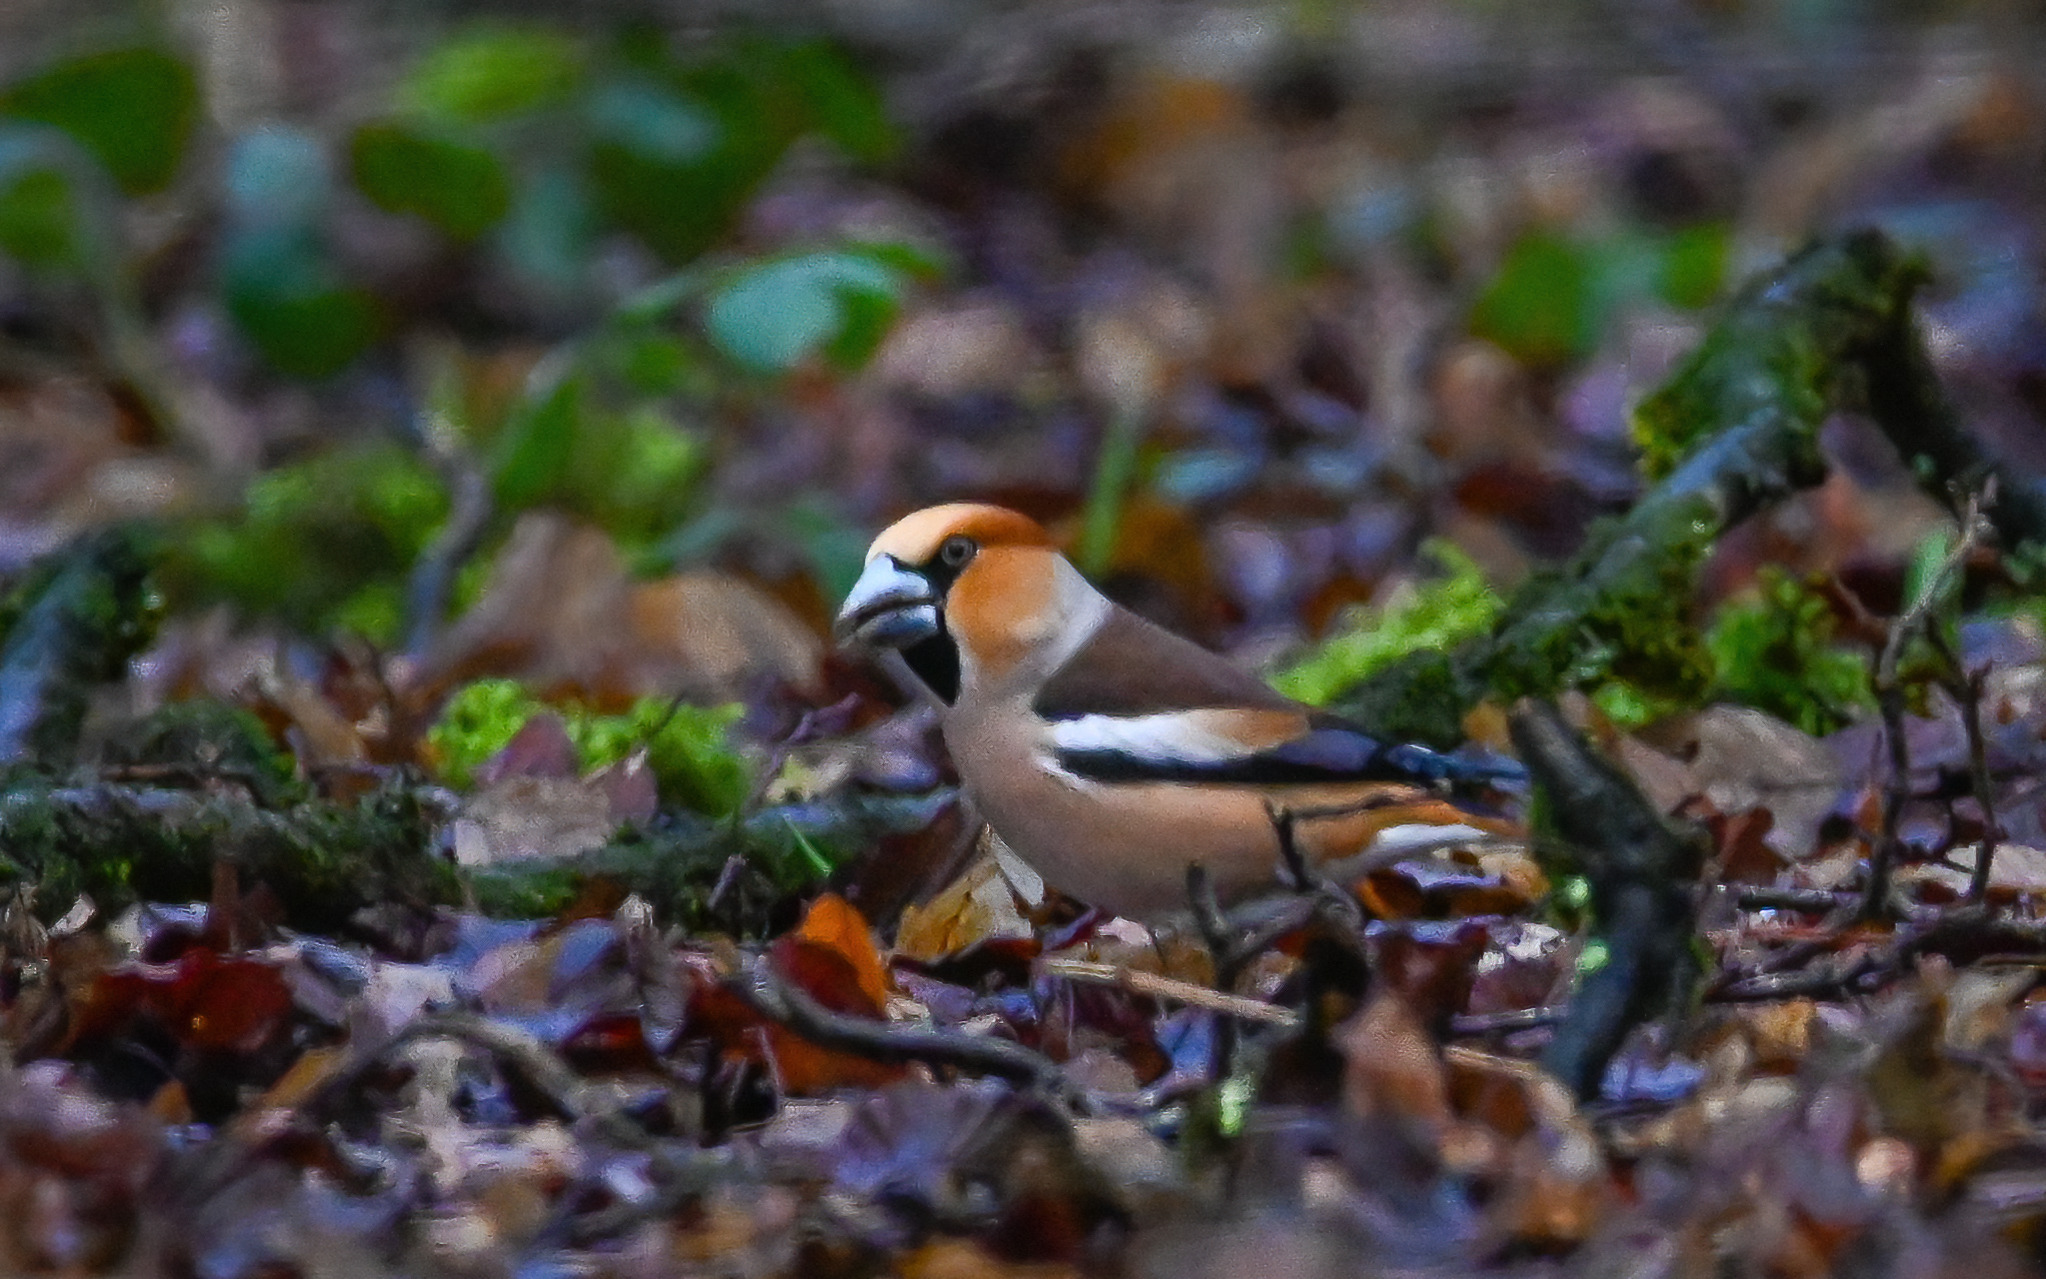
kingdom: Animalia
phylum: Chordata
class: Aves
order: Passeriformes
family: Fringillidae
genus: Coccothraustes
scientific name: Coccothraustes coccothraustes
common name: Hawfinch
